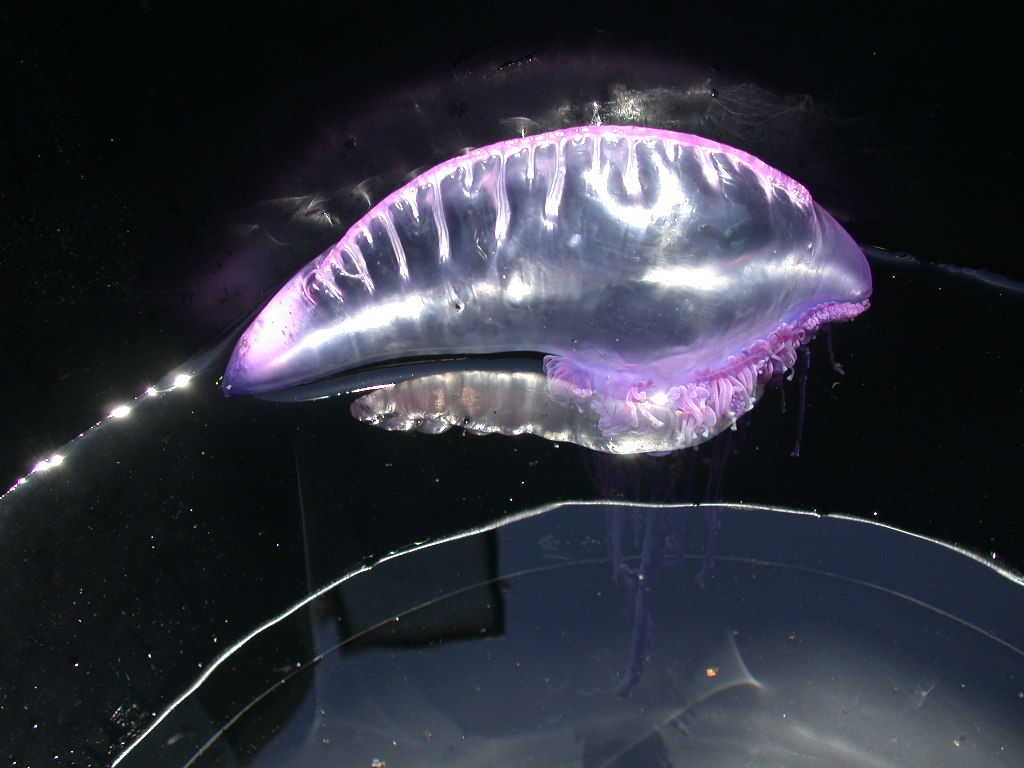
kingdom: Animalia
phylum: Cnidaria
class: Hydrozoa
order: Siphonophorae
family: Physaliidae
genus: Physalia
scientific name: Physalia physalis
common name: Portuguese man-of-war
